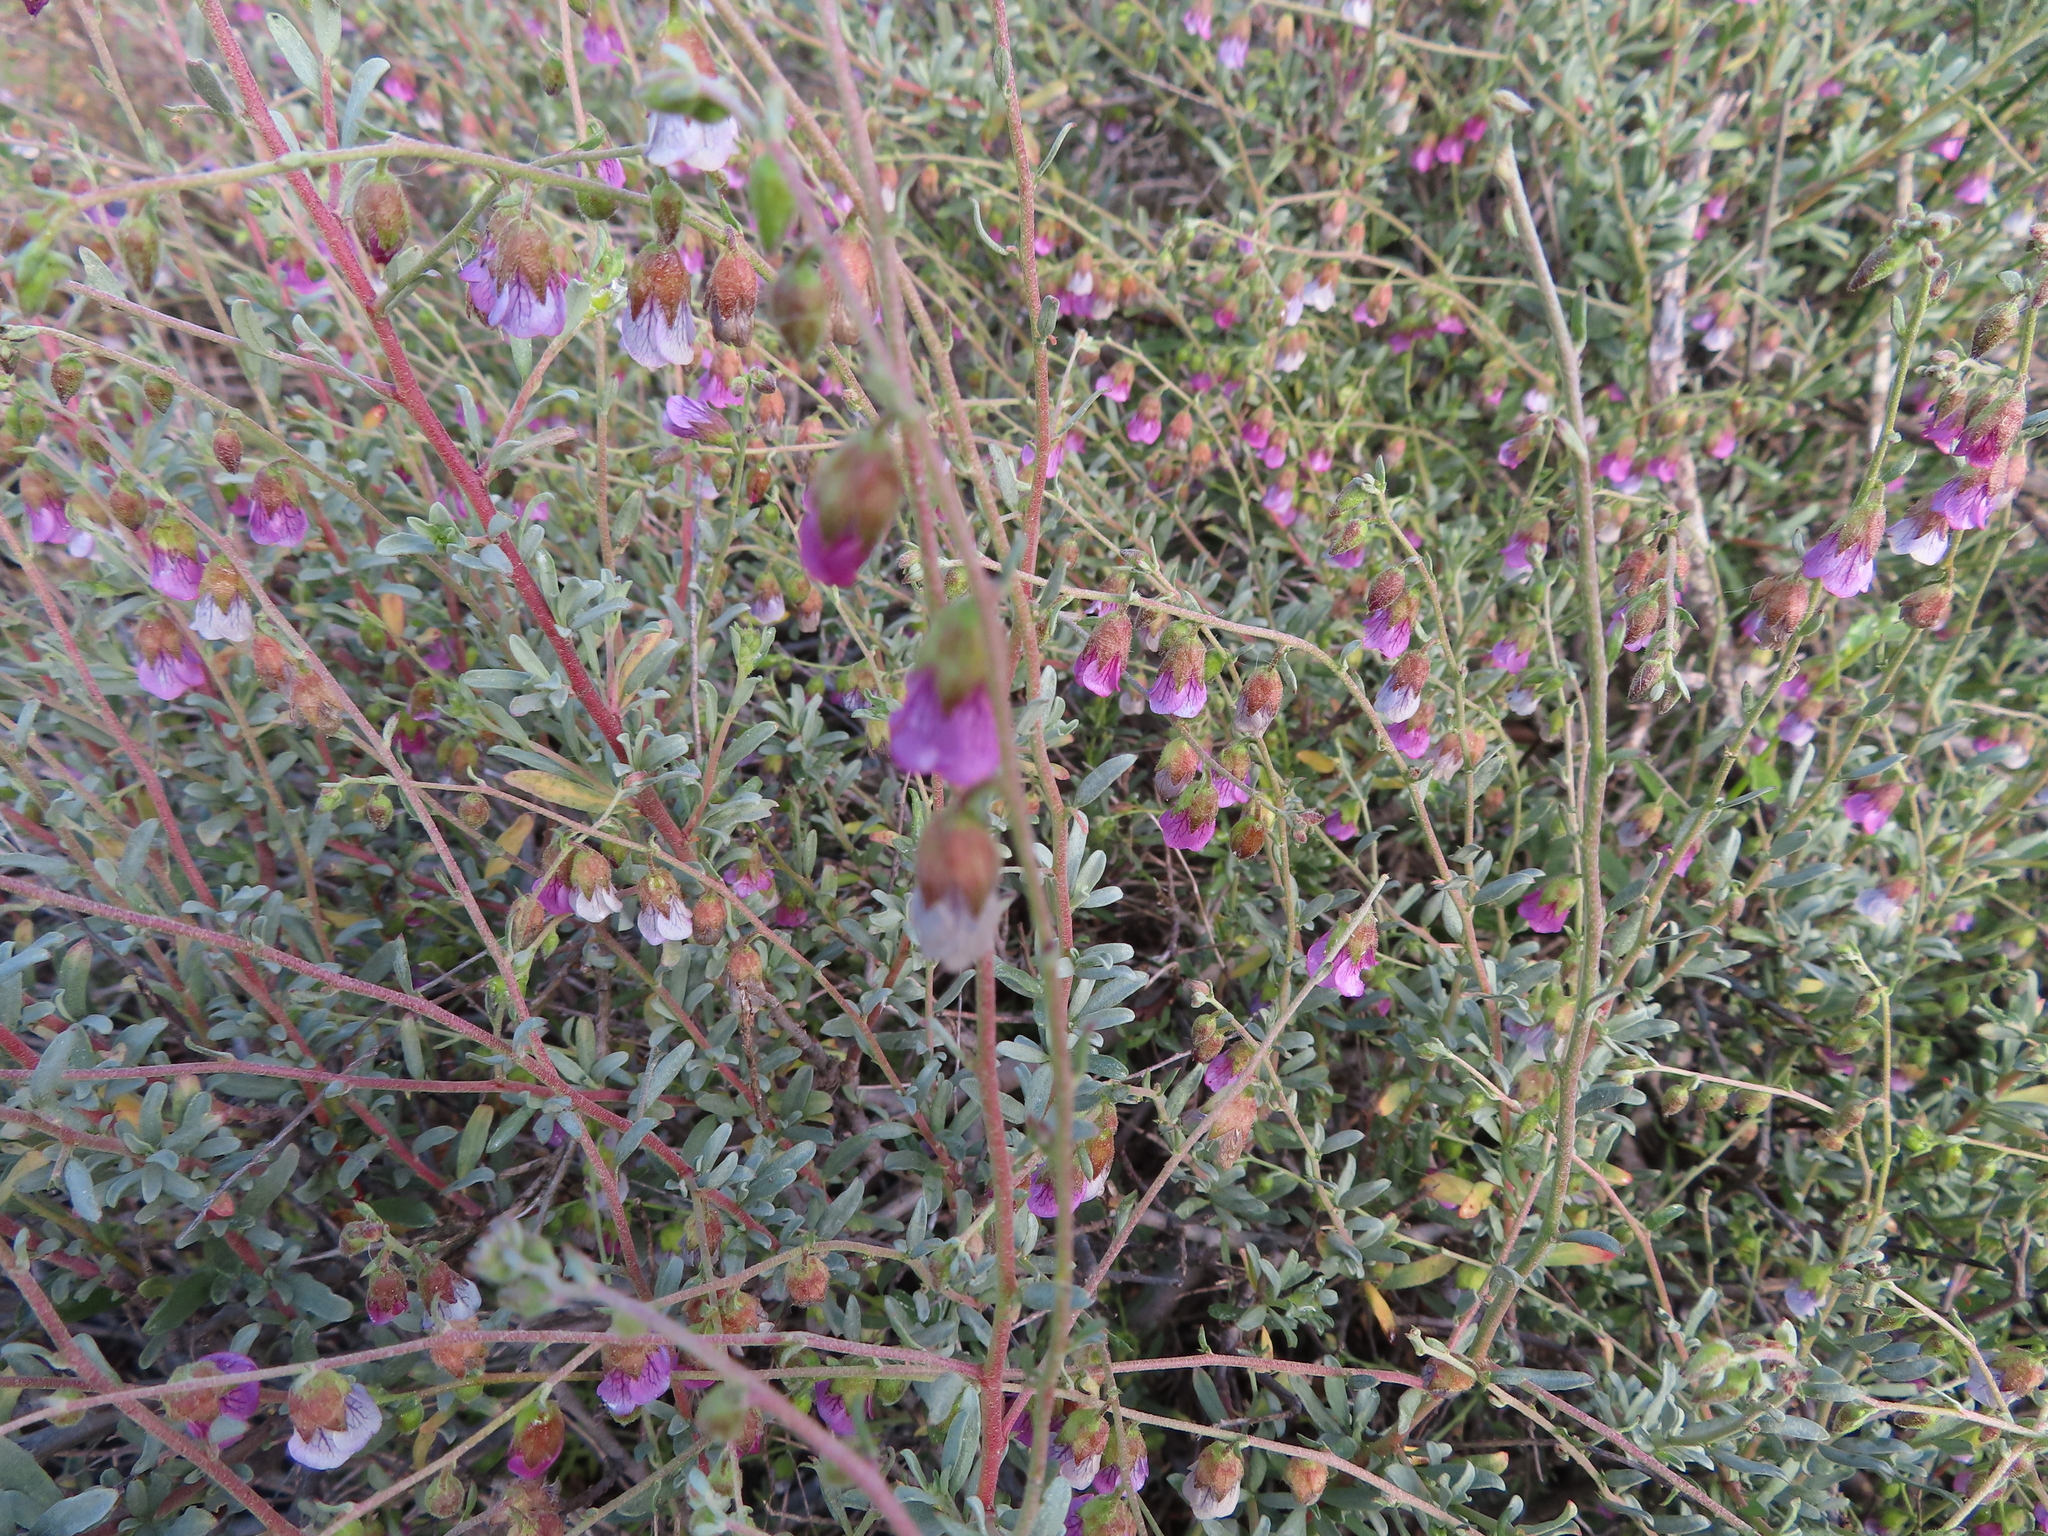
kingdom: Plantae
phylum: Tracheophyta
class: Magnoliopsida
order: Malvales
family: Malvaceae
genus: Hermannia
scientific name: Hermannia trifurca
